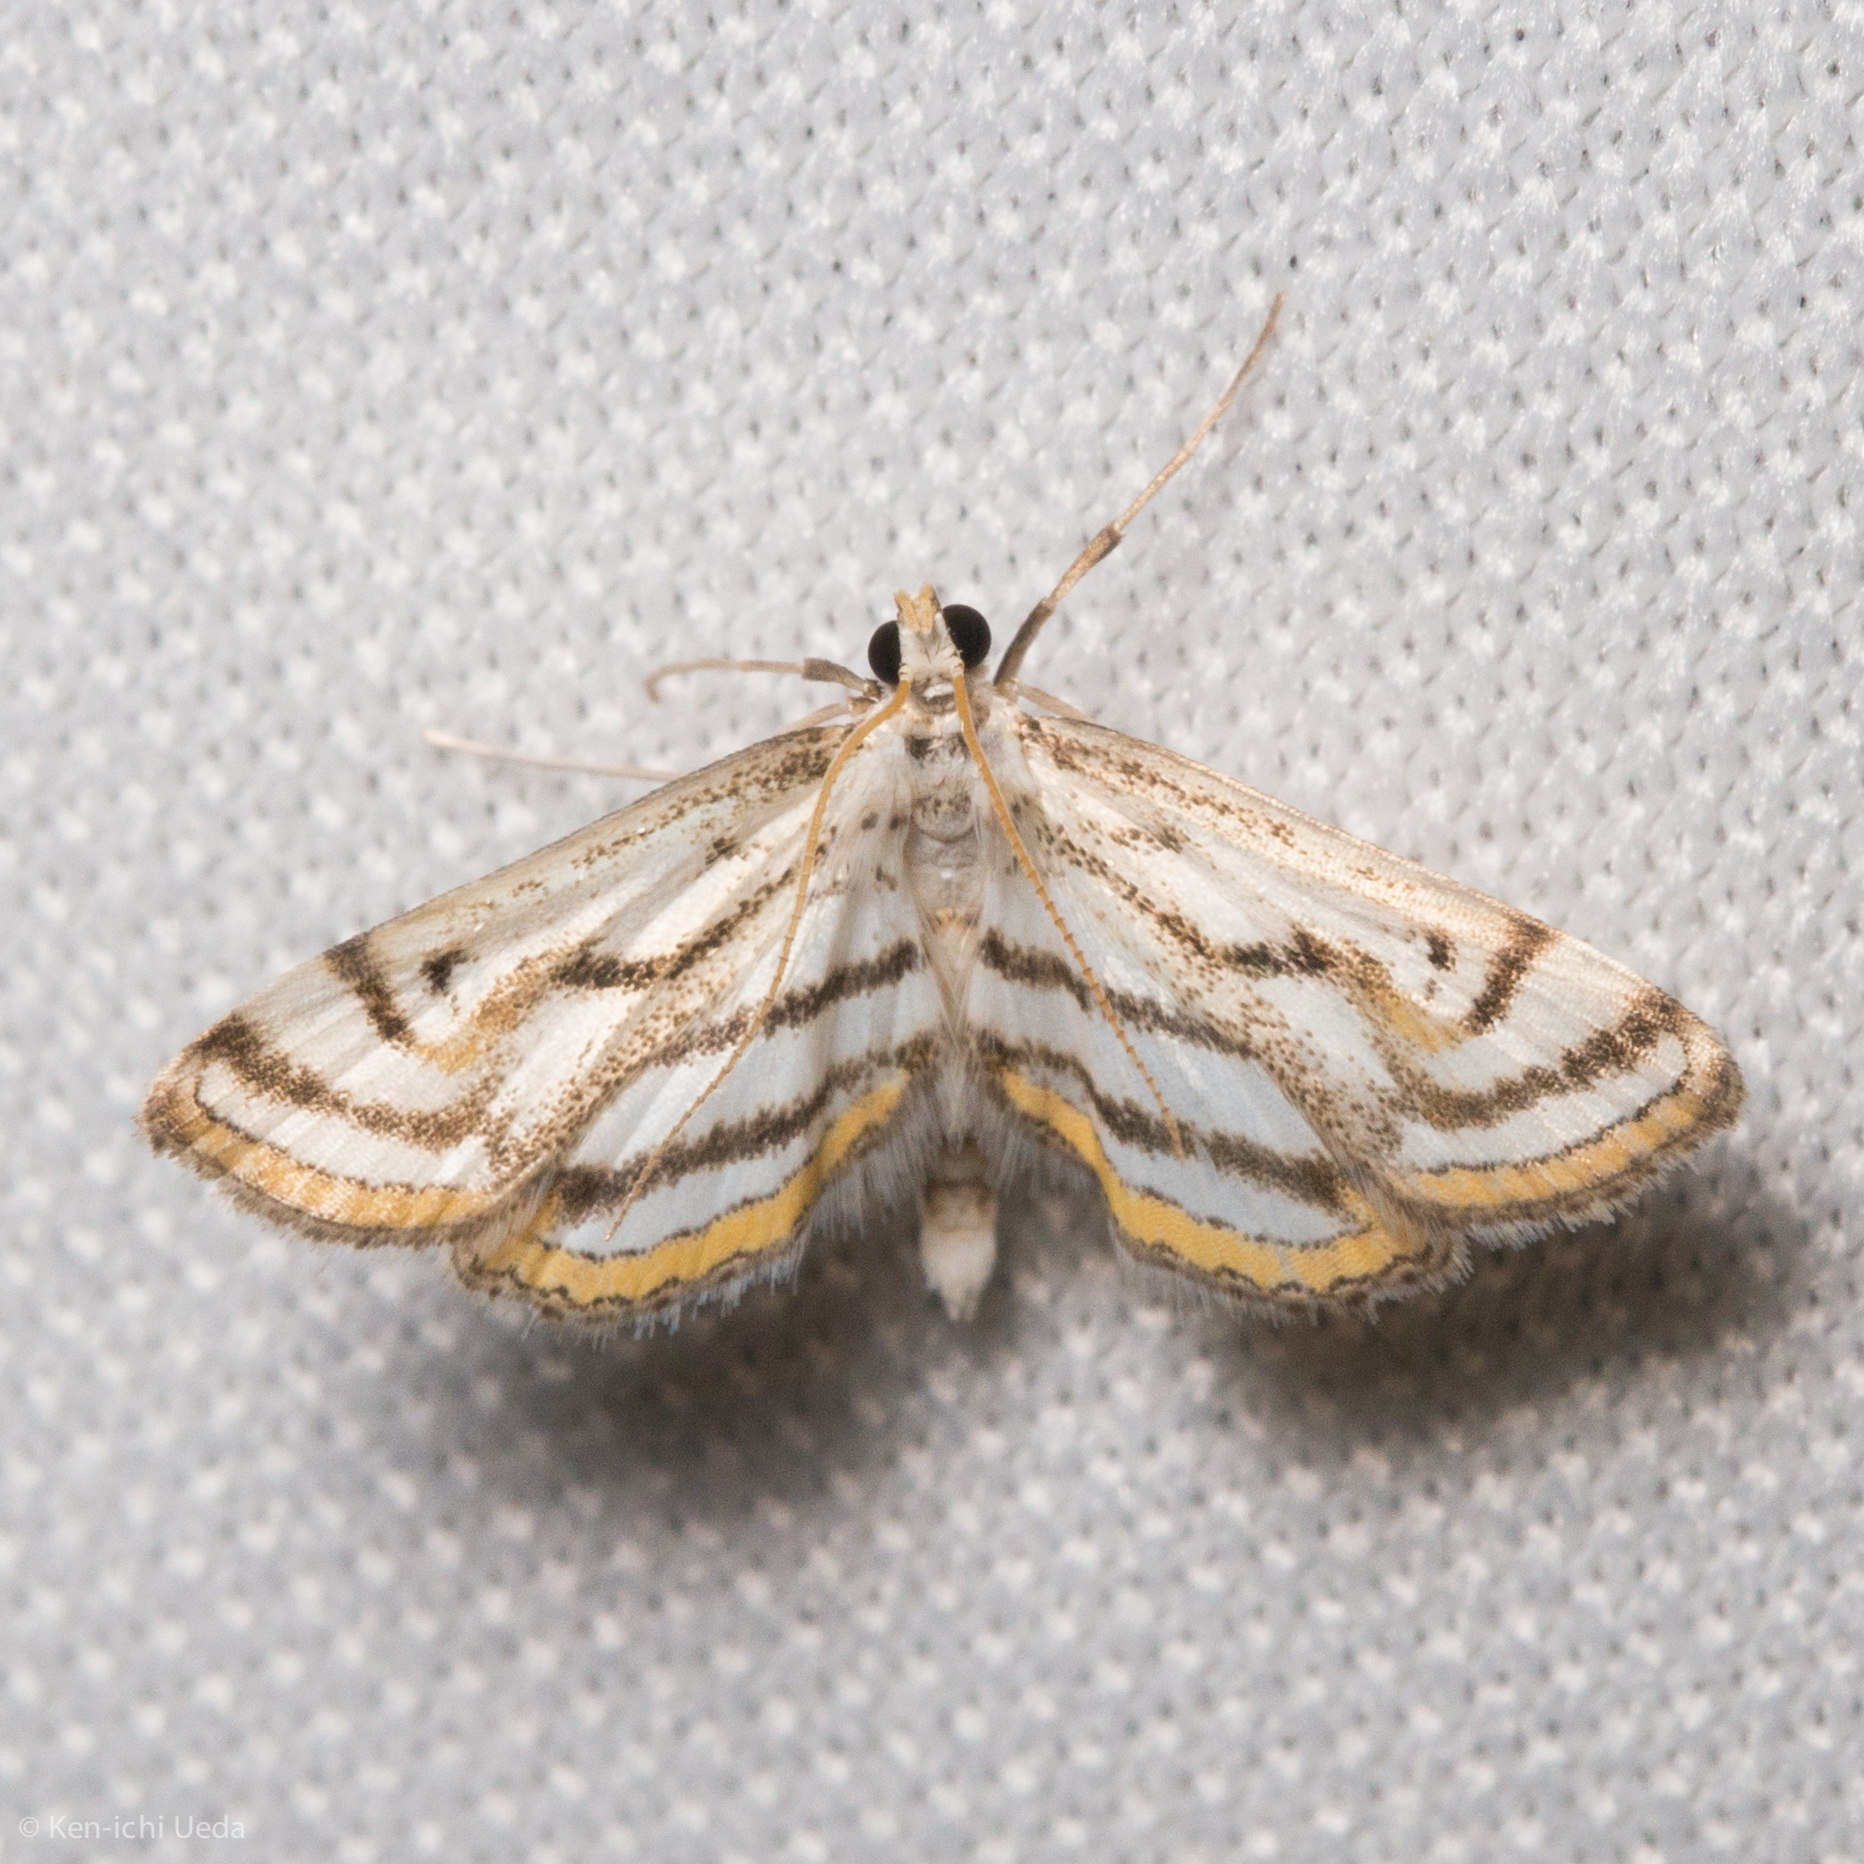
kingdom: Animalia
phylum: Arthropoda
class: Insecta
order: Lepidoptera
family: Crambidae
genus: Parapoynx
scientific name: Parapoynx badiusalis
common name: Chestnut-marked pondweed moth
